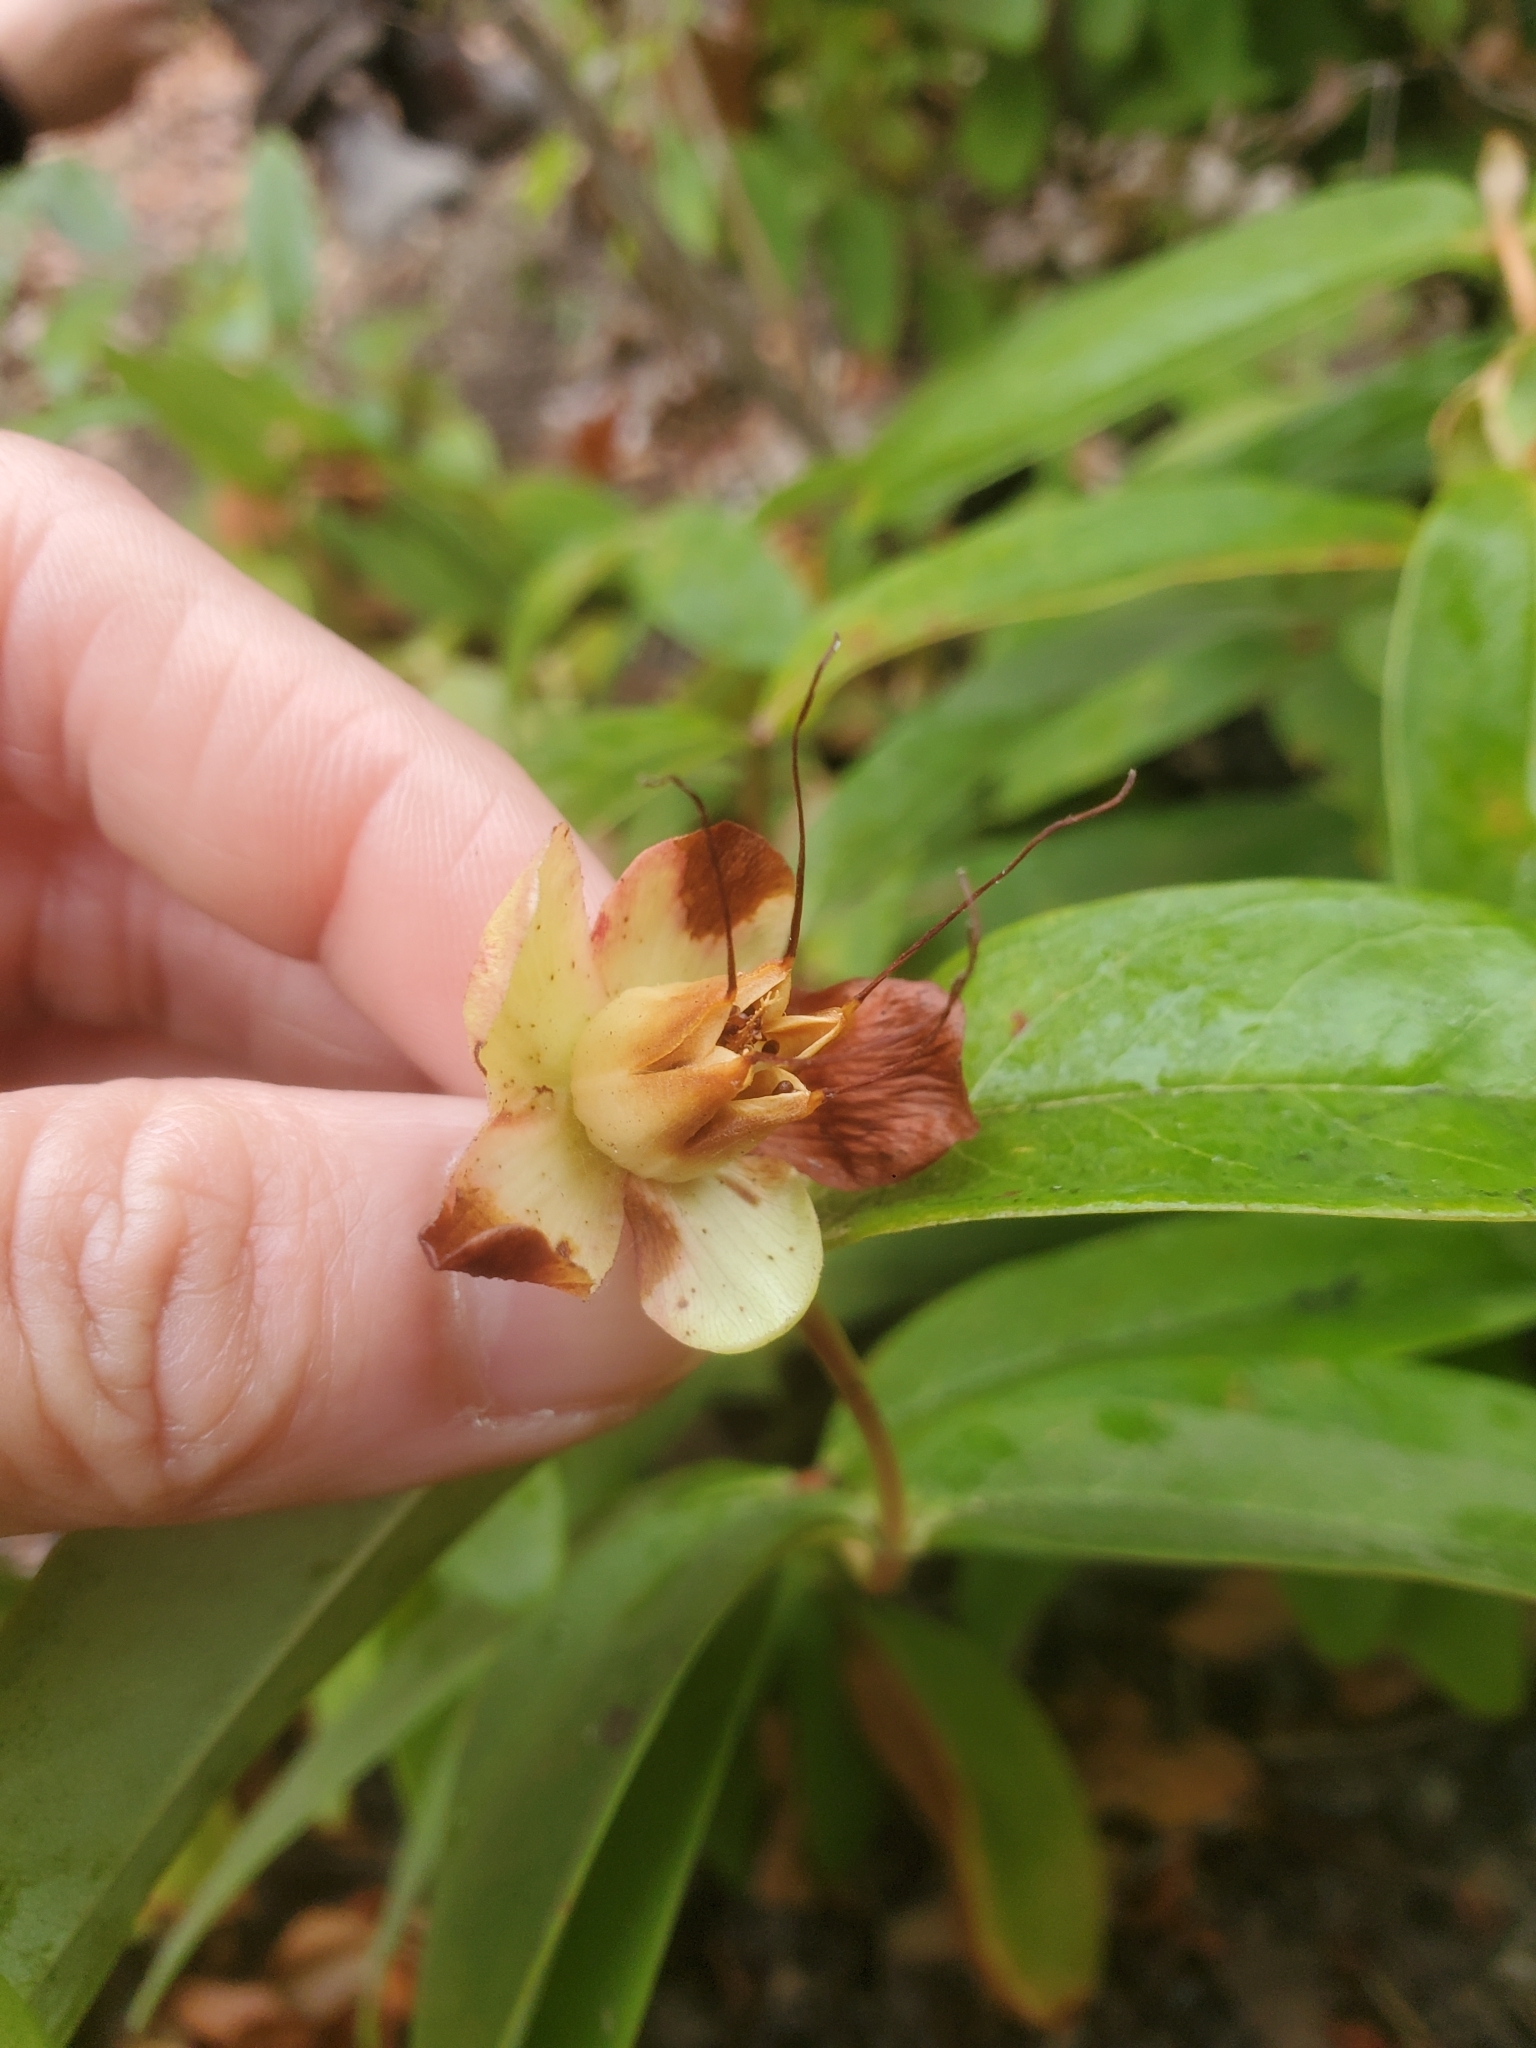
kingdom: Plantae
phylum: Tracheophyta
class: Magnoliopsida
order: Malpighiales
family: Hypericaceae
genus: Hypericum
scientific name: Hypericum calycinum
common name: Rose-of-sharon
